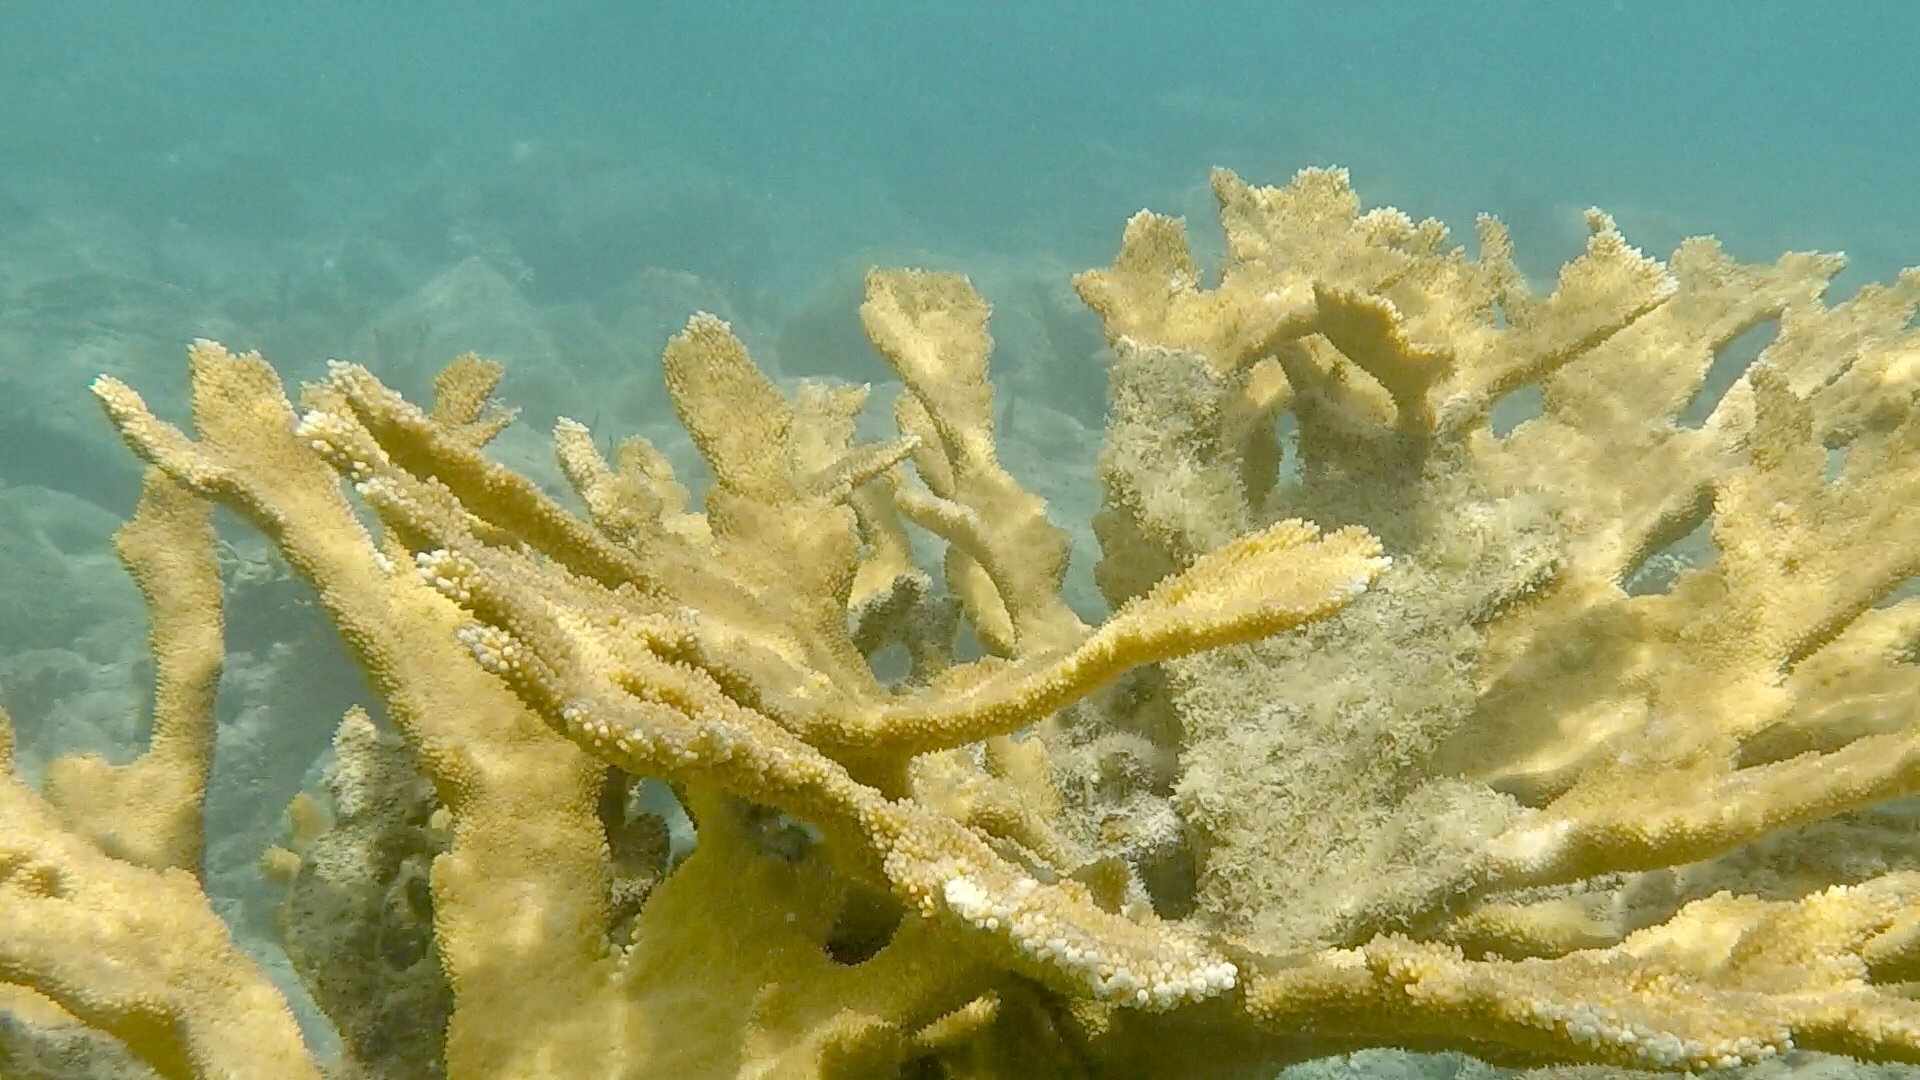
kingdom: Animalia
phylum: Cnidaria
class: Anthozoa
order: Scleractinia
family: Acroporidae
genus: Acropora
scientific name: Acropora palmata
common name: Elkhorn coral
